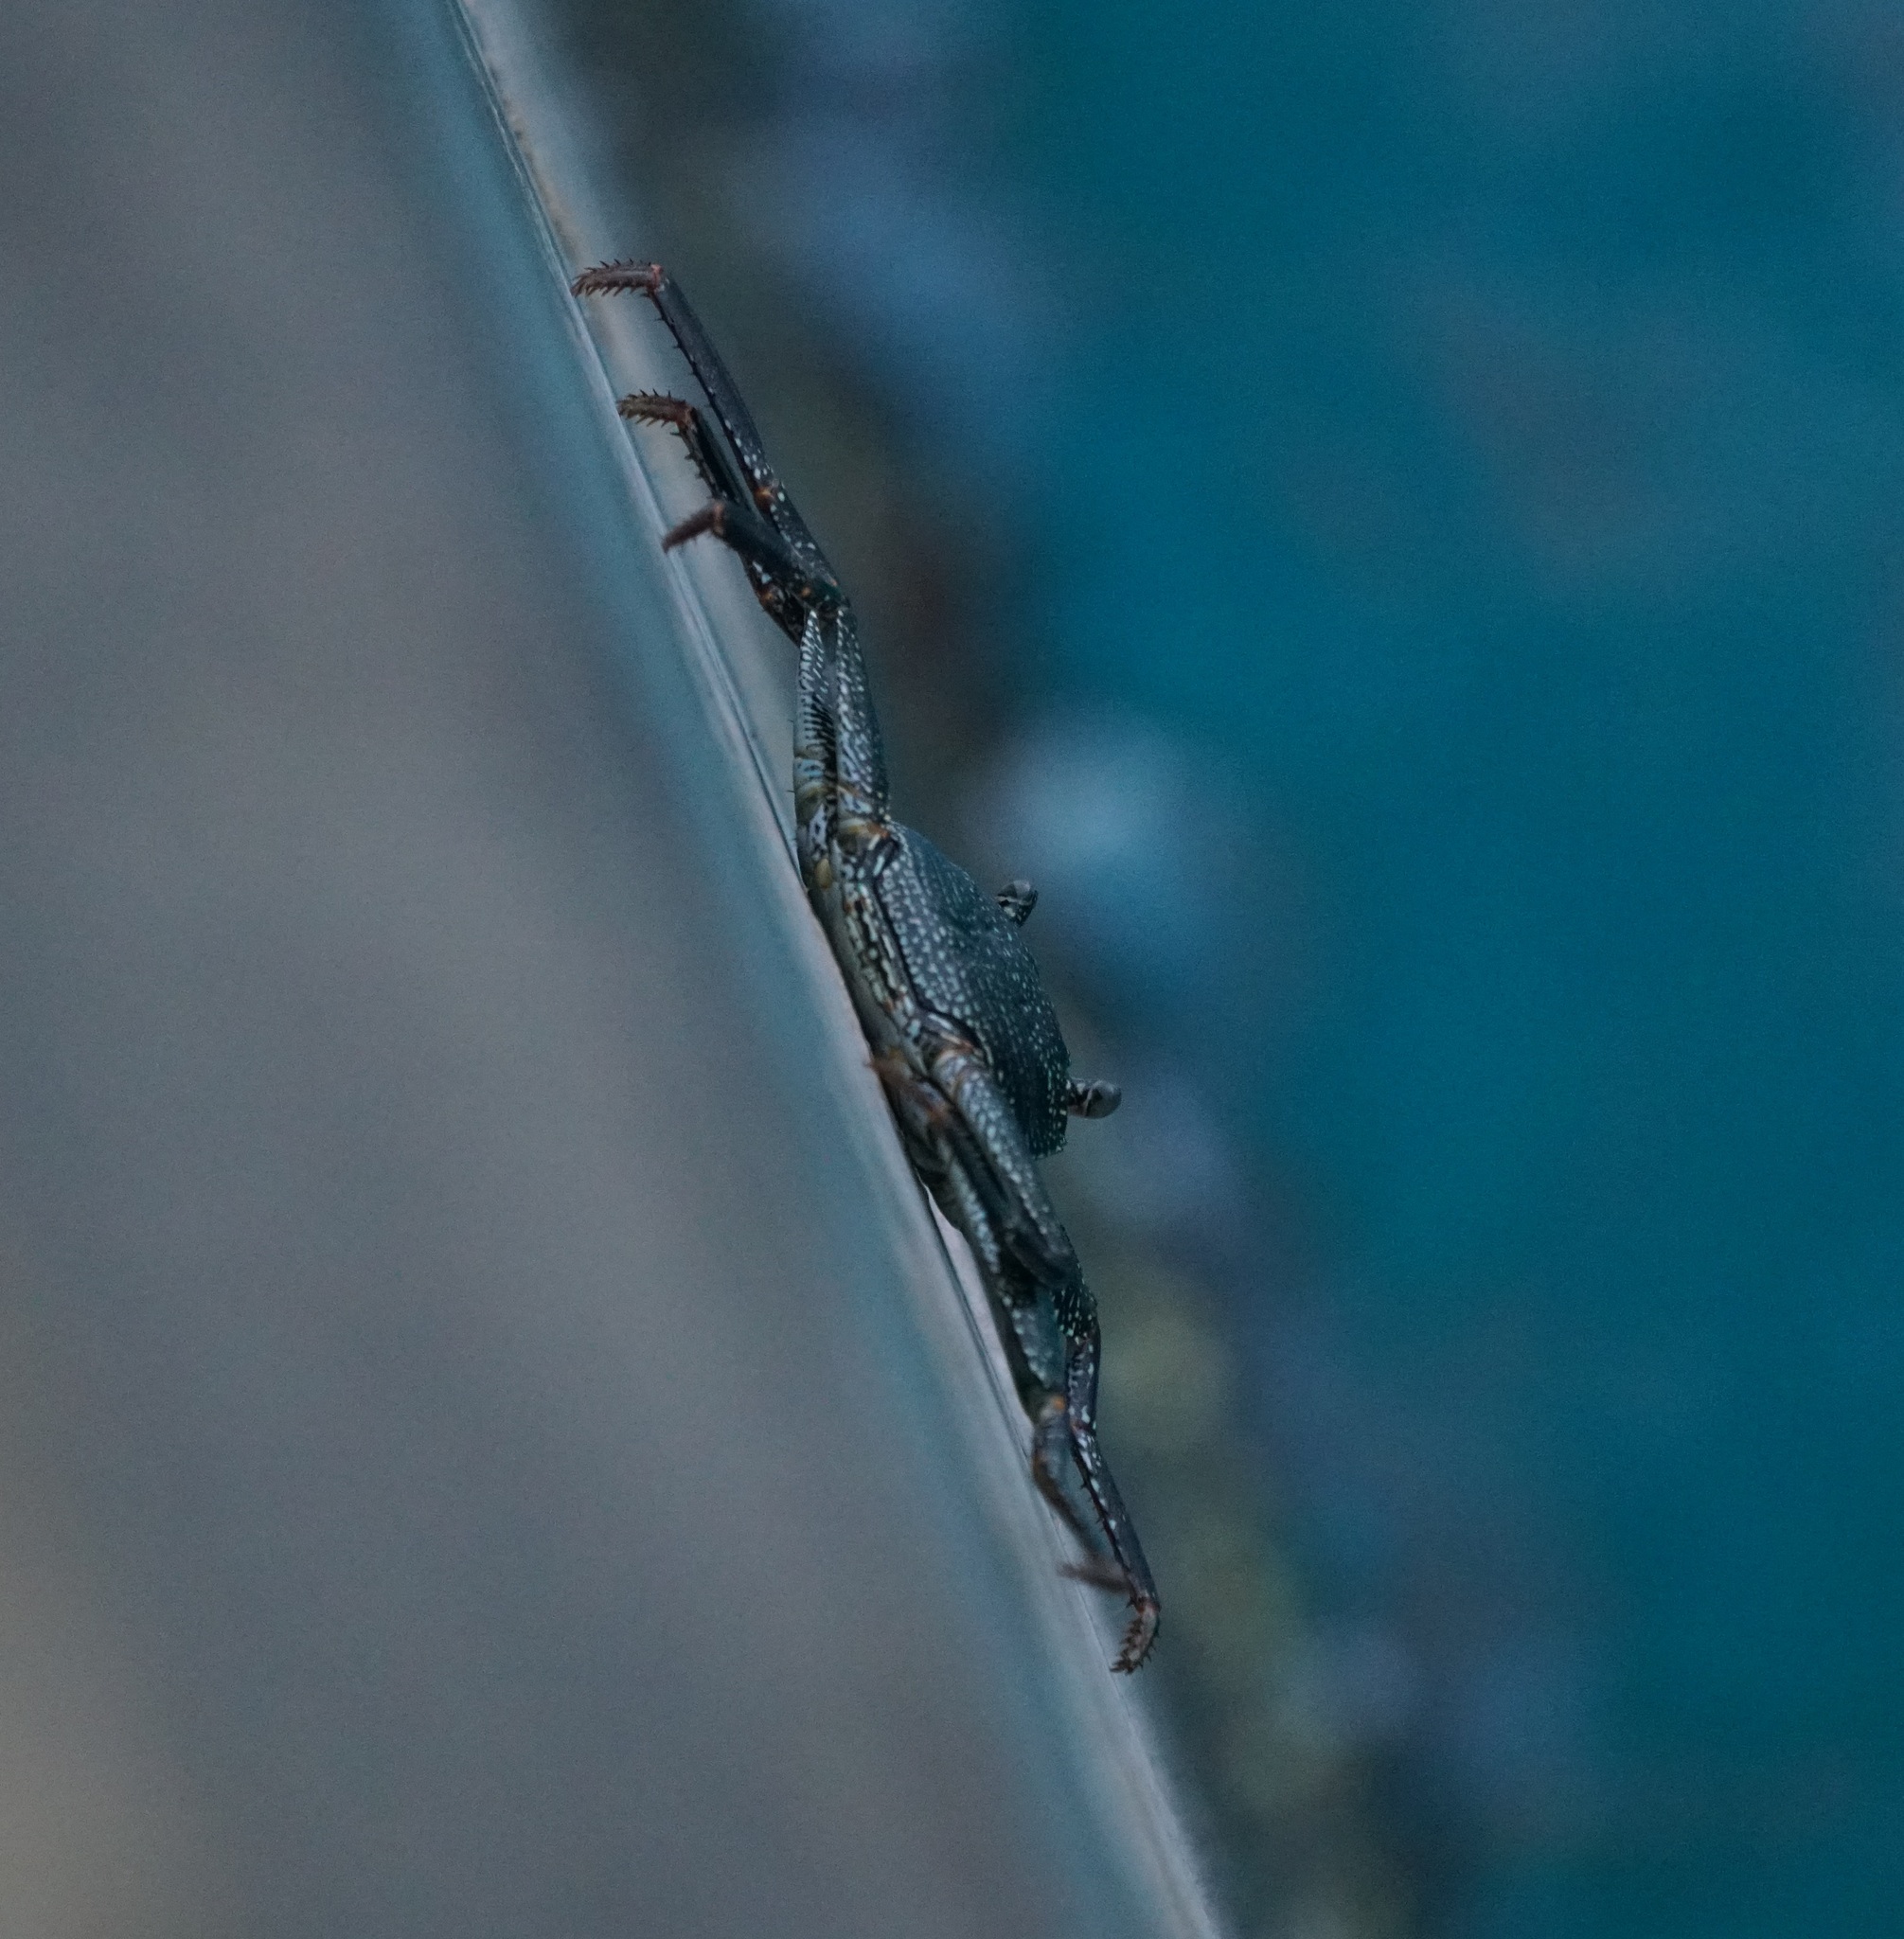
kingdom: Animalia
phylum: Arthropoda
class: Malacostraca
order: Decapoda
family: Grapsidae
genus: Grapsus
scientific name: Grapsus tenuicrustatus
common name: Natal lightfoot crab
